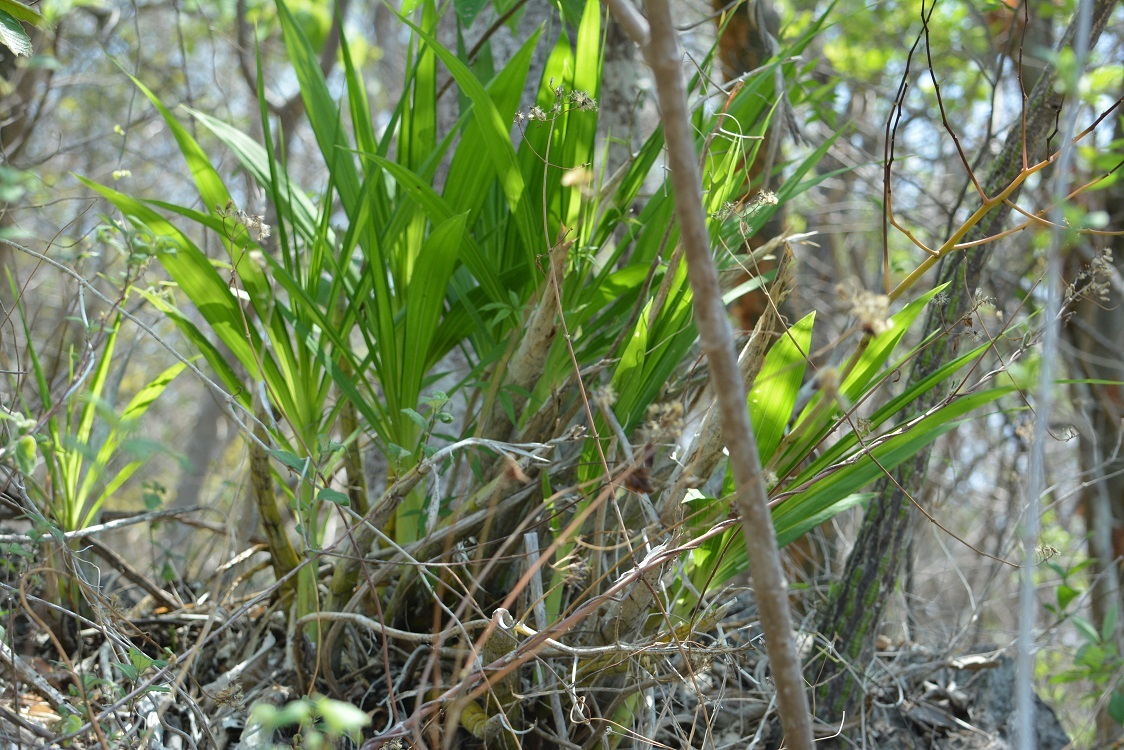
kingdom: Plantae
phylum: Tracheophyta
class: Liliopsida
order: Asparagales
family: Orchidaceae
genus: Cyrtopodium
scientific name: Cyrtopodium macrobulbon
